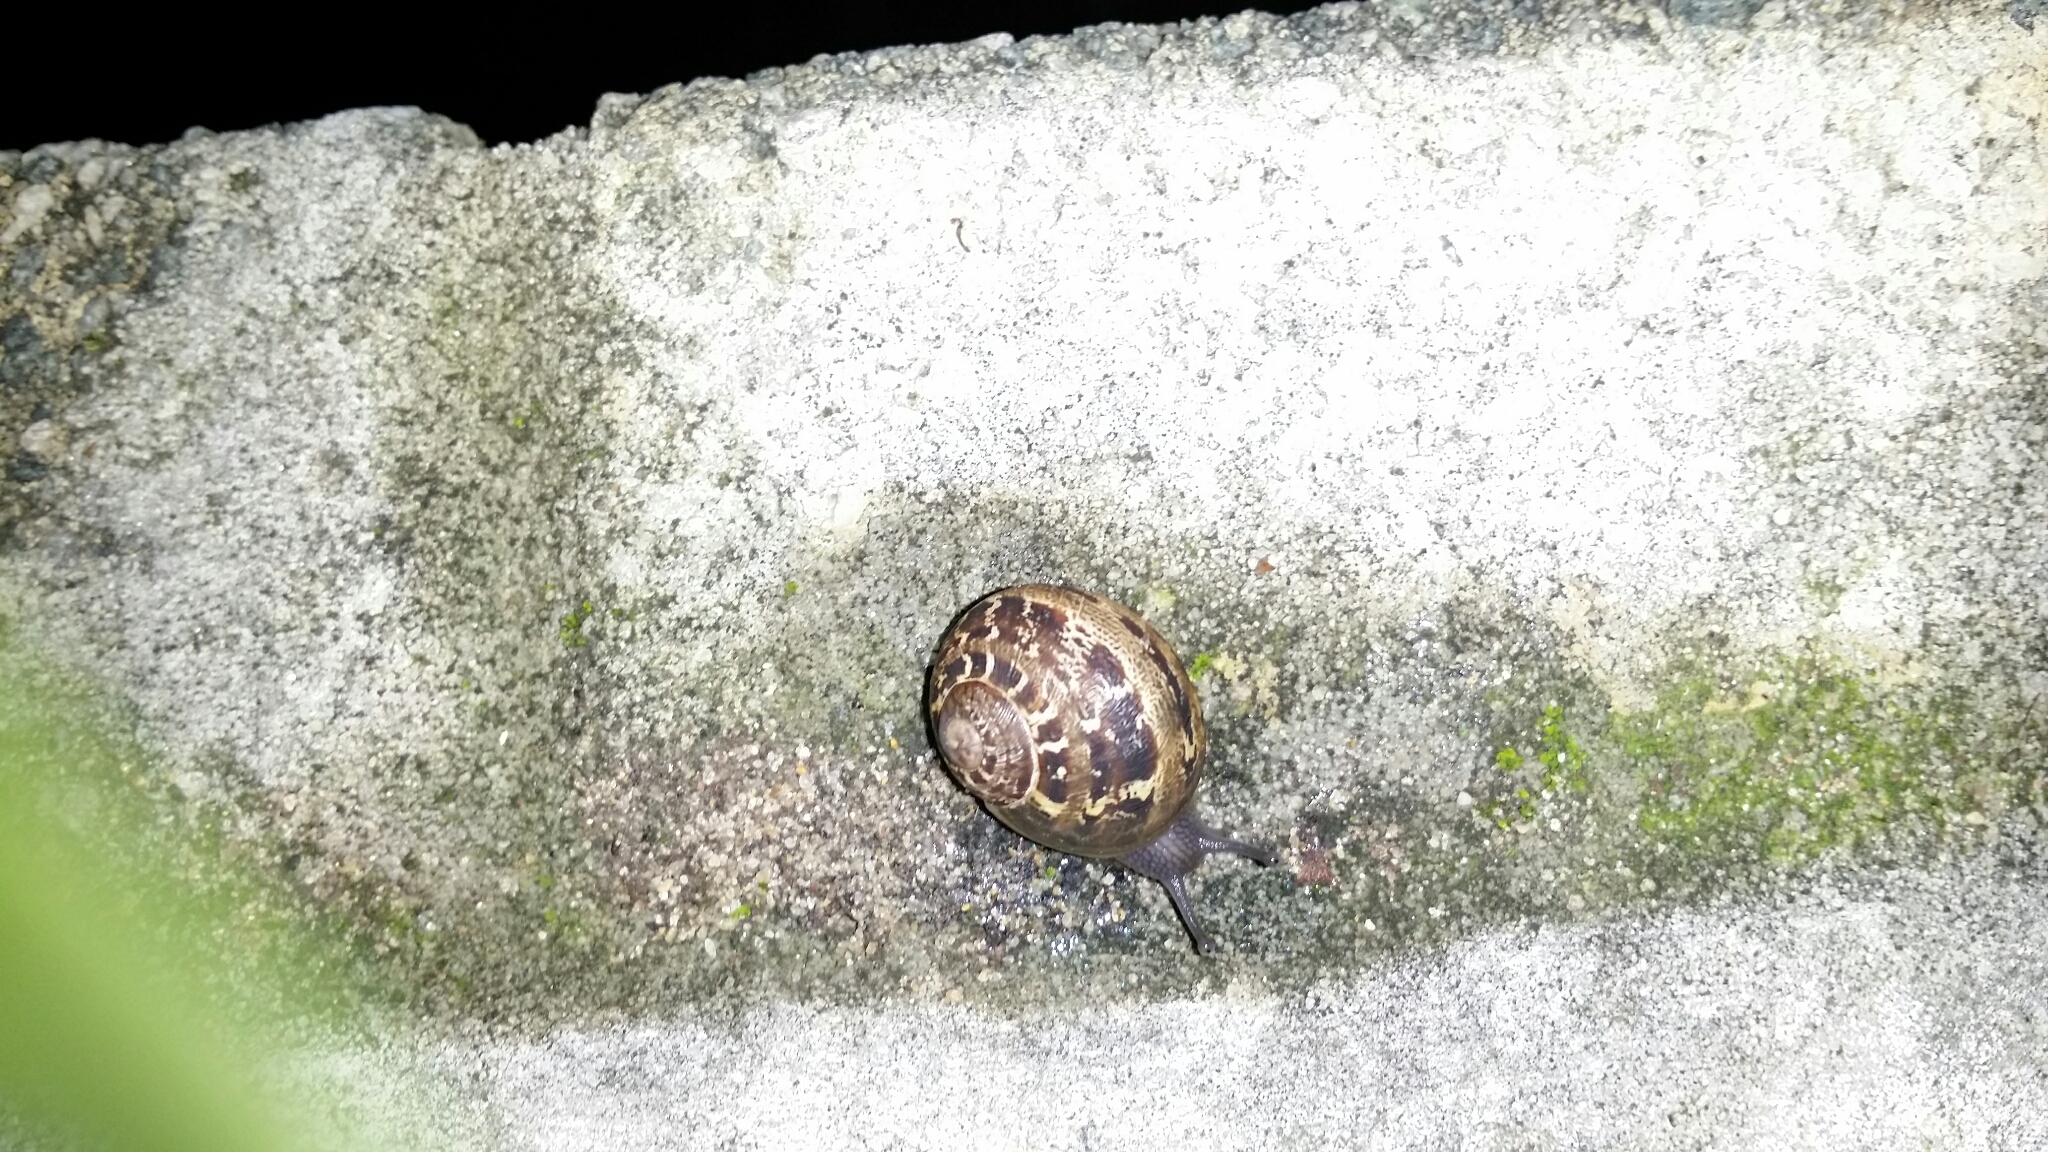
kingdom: Animalia
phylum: Mollusca
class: Gastropoda
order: Stylommatophora
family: Helicidae
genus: Cornu
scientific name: Cornu aspersum
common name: Brown garden snail
